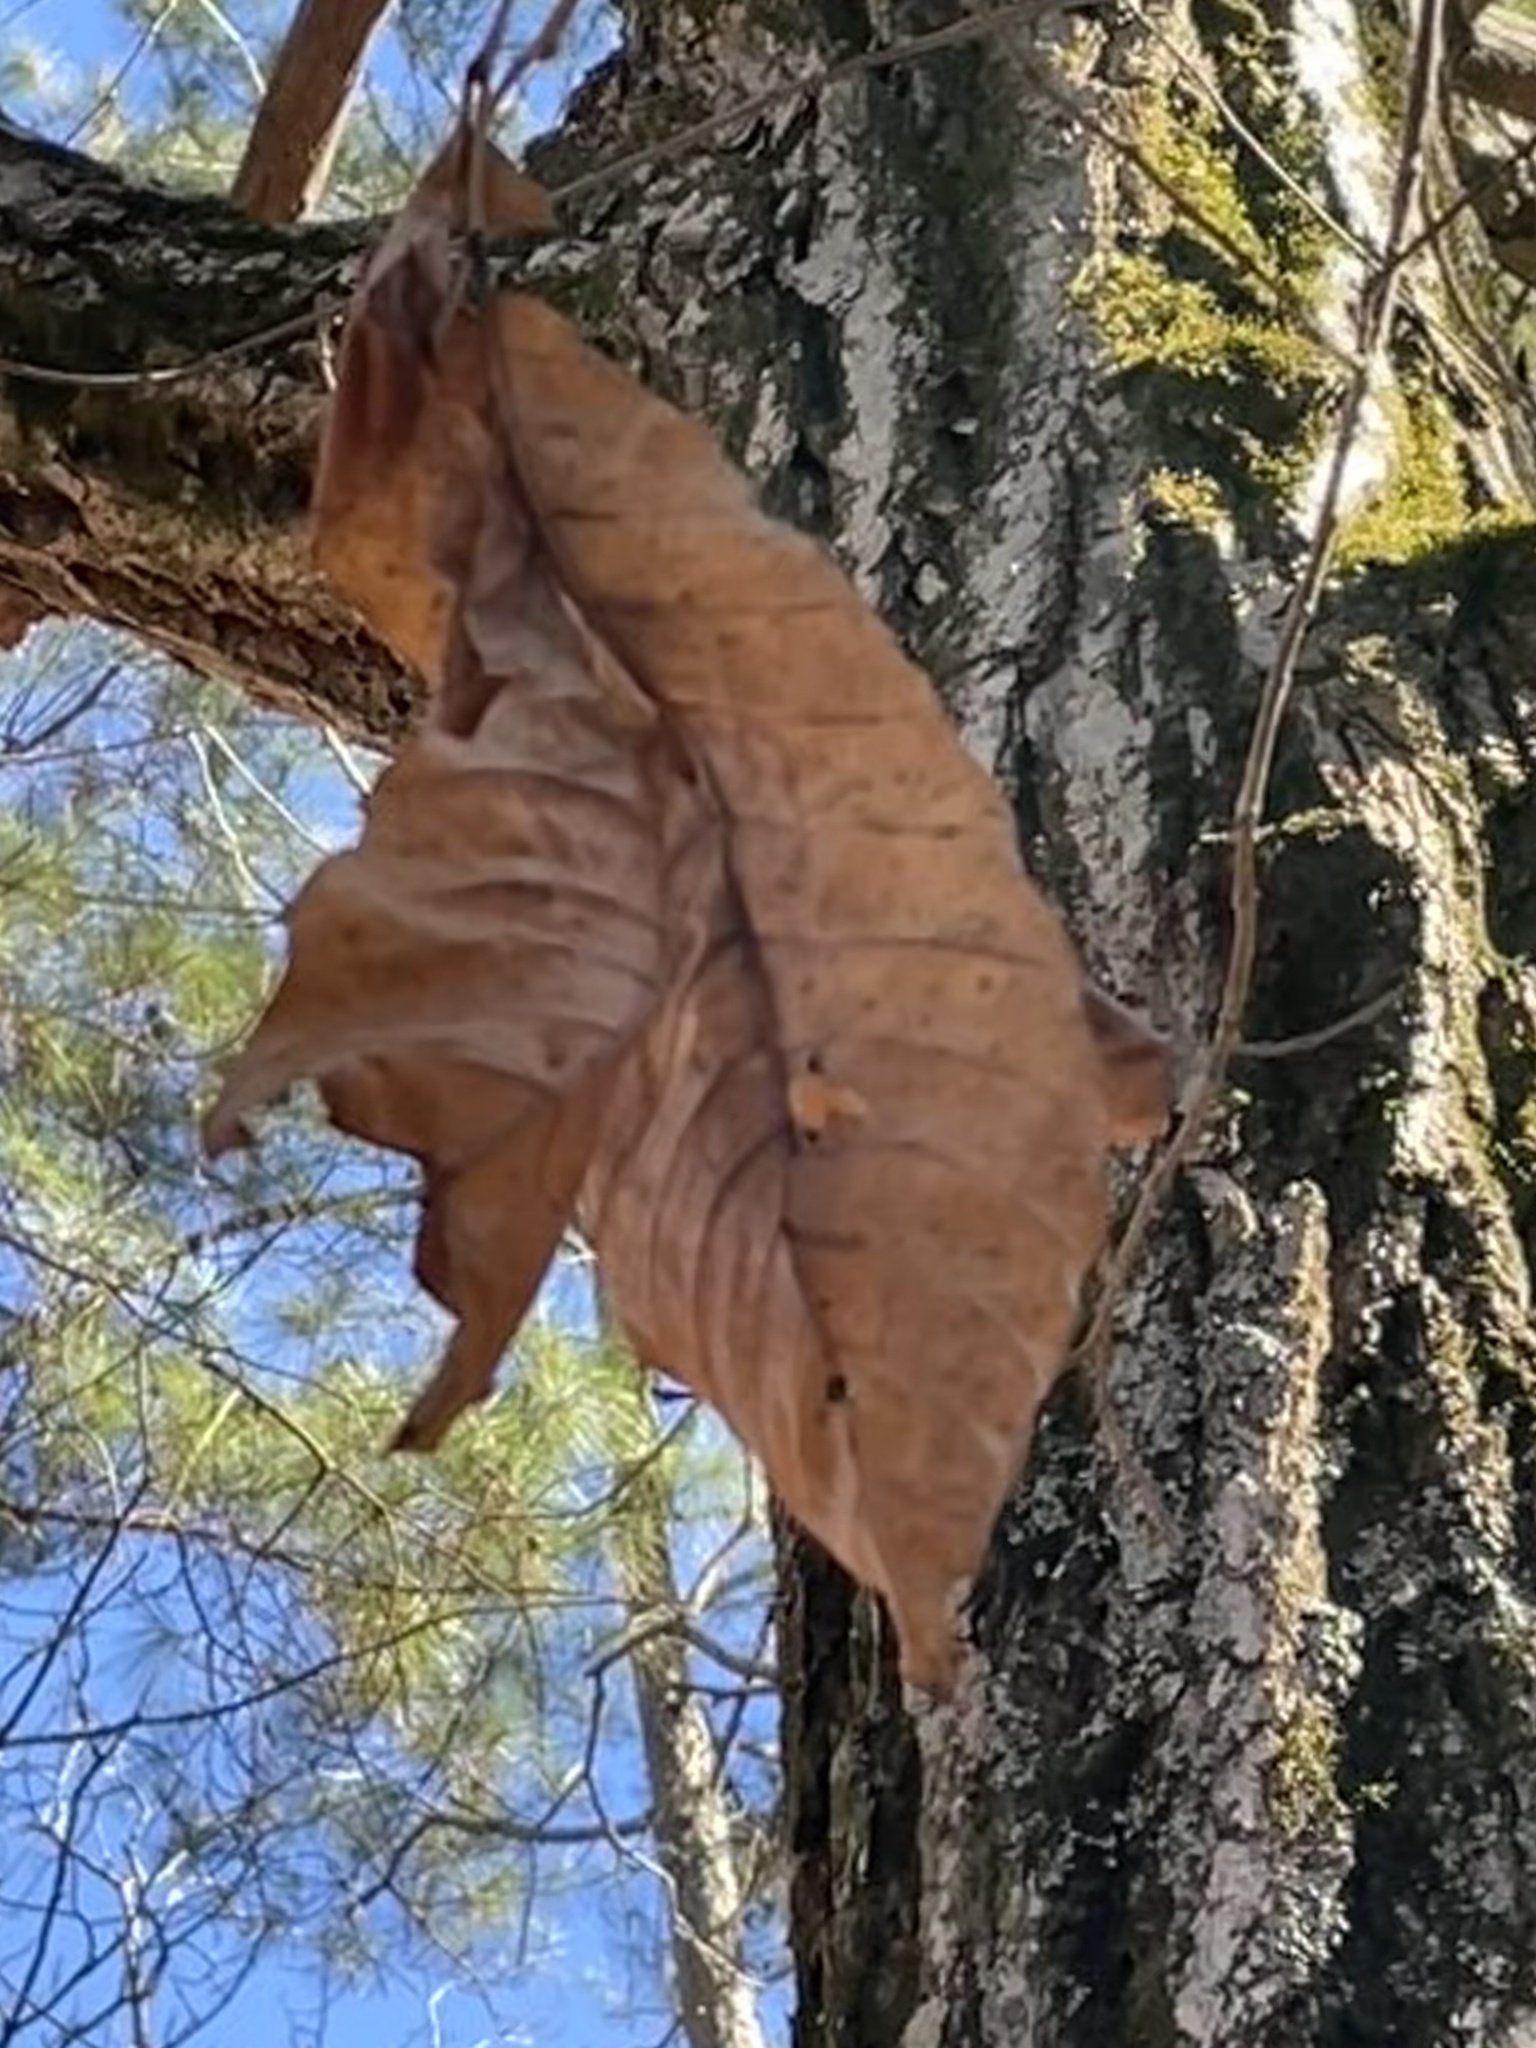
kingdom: Plantae
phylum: Tracheophyta
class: Magnoliopsida
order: Fagales
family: Fagaceae
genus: Quercus
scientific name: Quercus montana
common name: Chestnut oak
